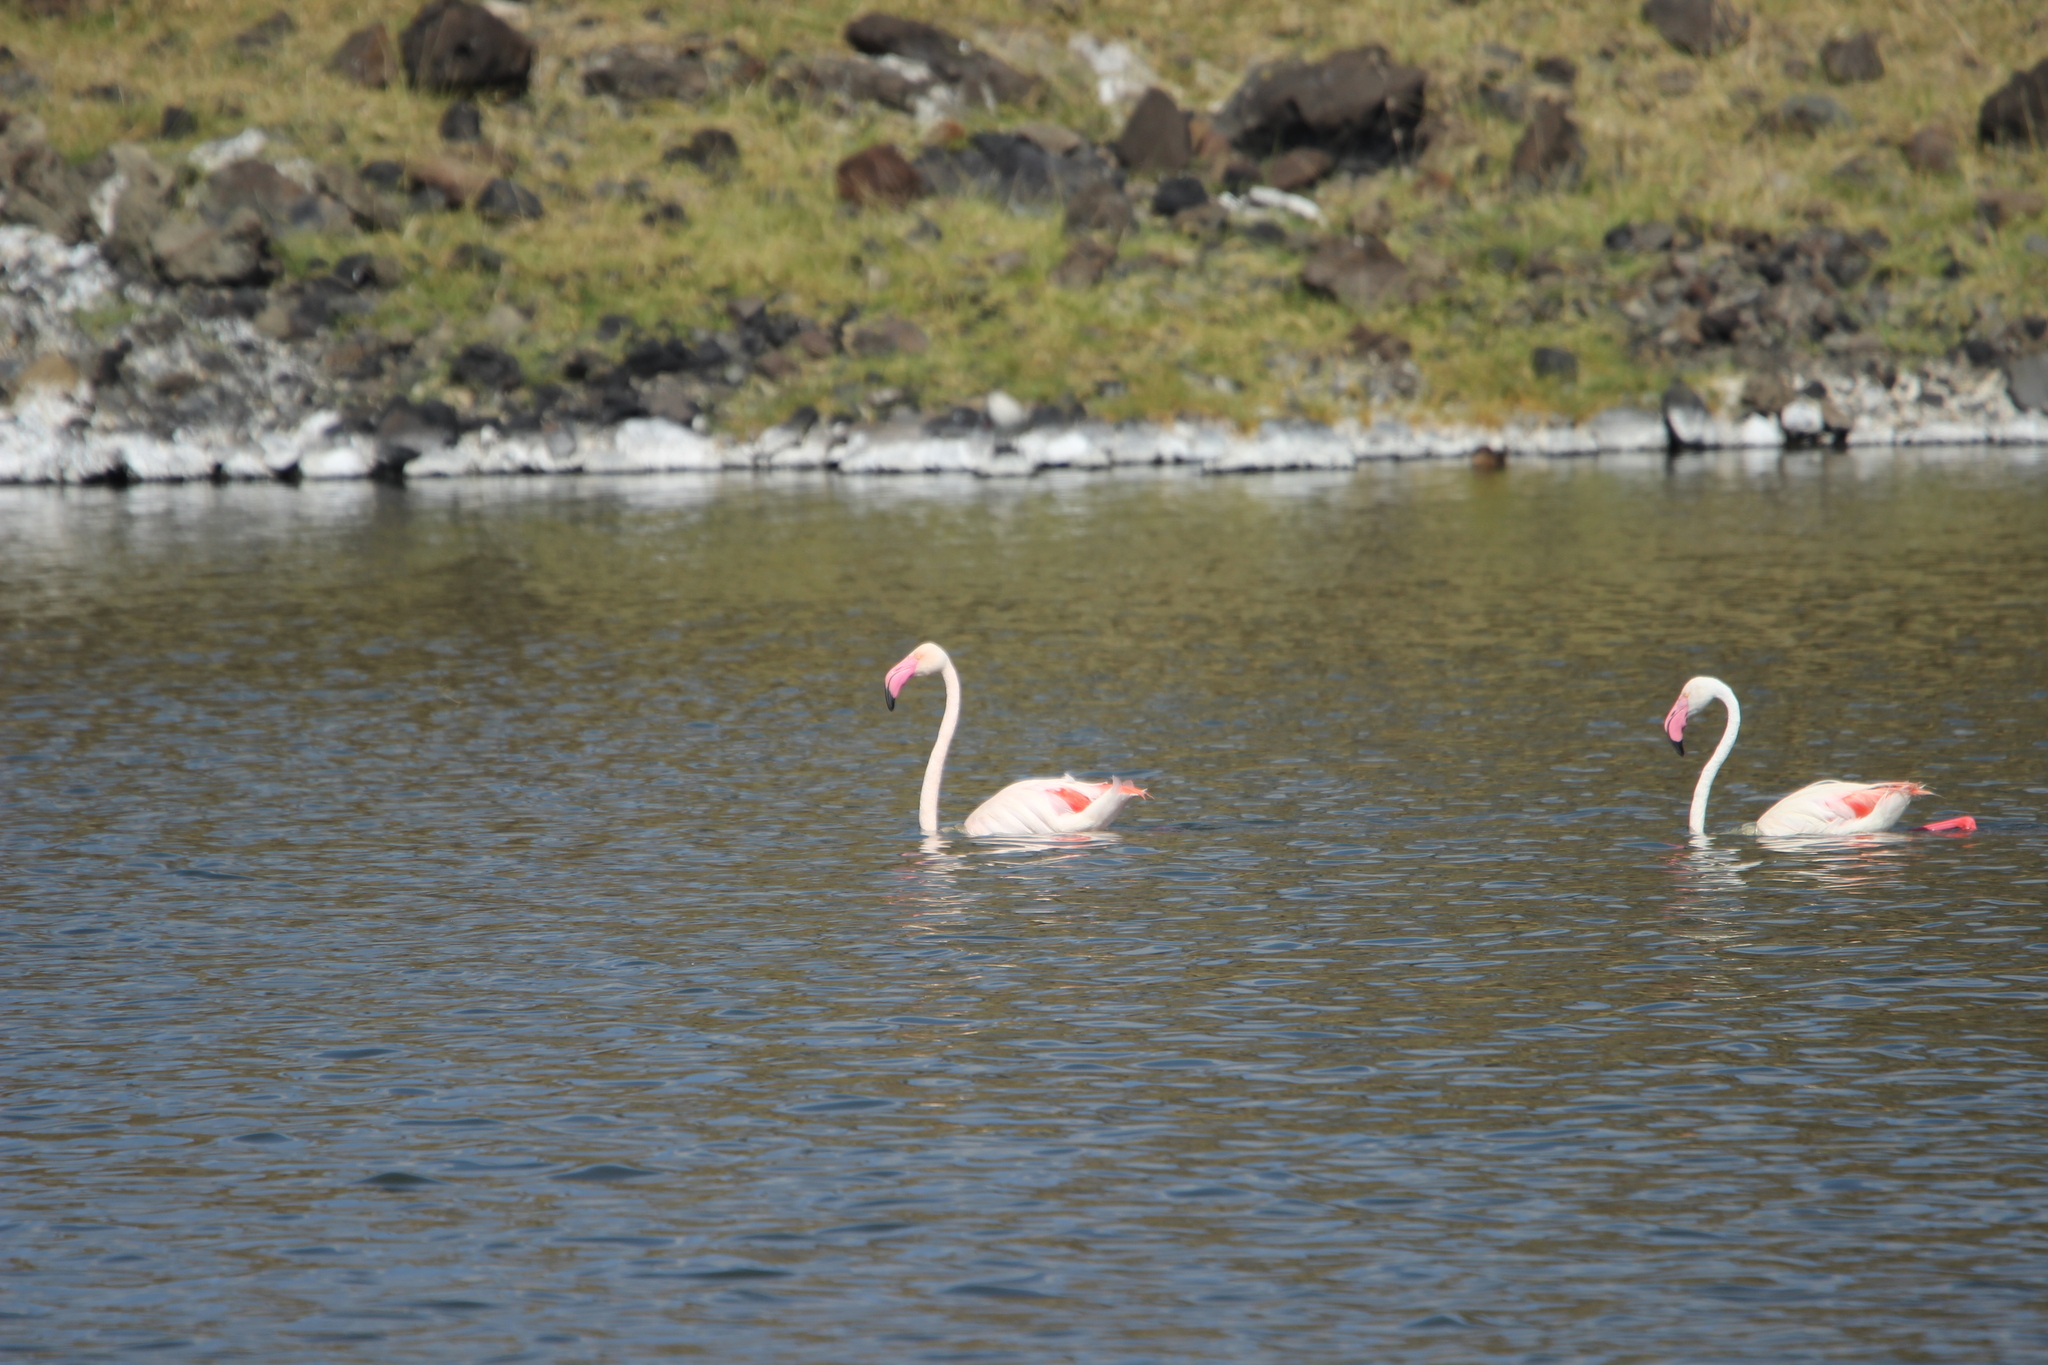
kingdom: Animalia
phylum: Chordata
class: Aves
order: Phoenicopteriformes
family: Phoenicopteridae
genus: Phoenicopterus
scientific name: Phoenicopterus roseus
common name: Greater flamingo
